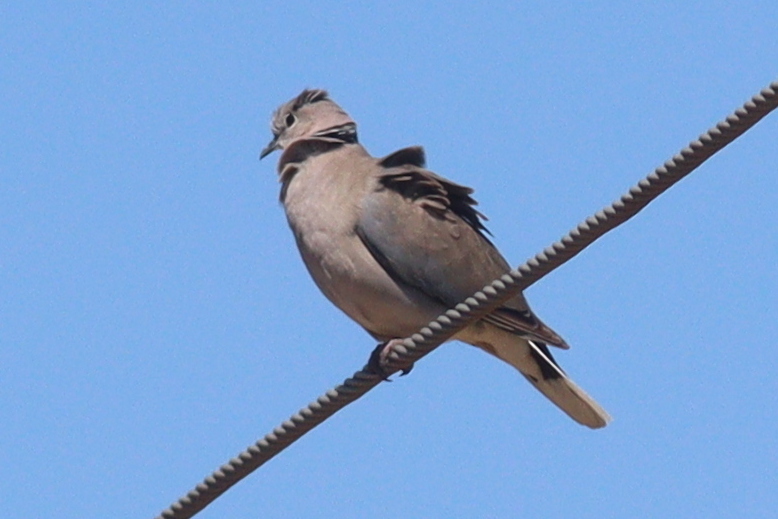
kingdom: Animalia
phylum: Chordata
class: Aves
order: Columbiformes
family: Columbidae
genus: Streptopelia
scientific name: Streptopelia capicola
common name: Ring-necked dove
